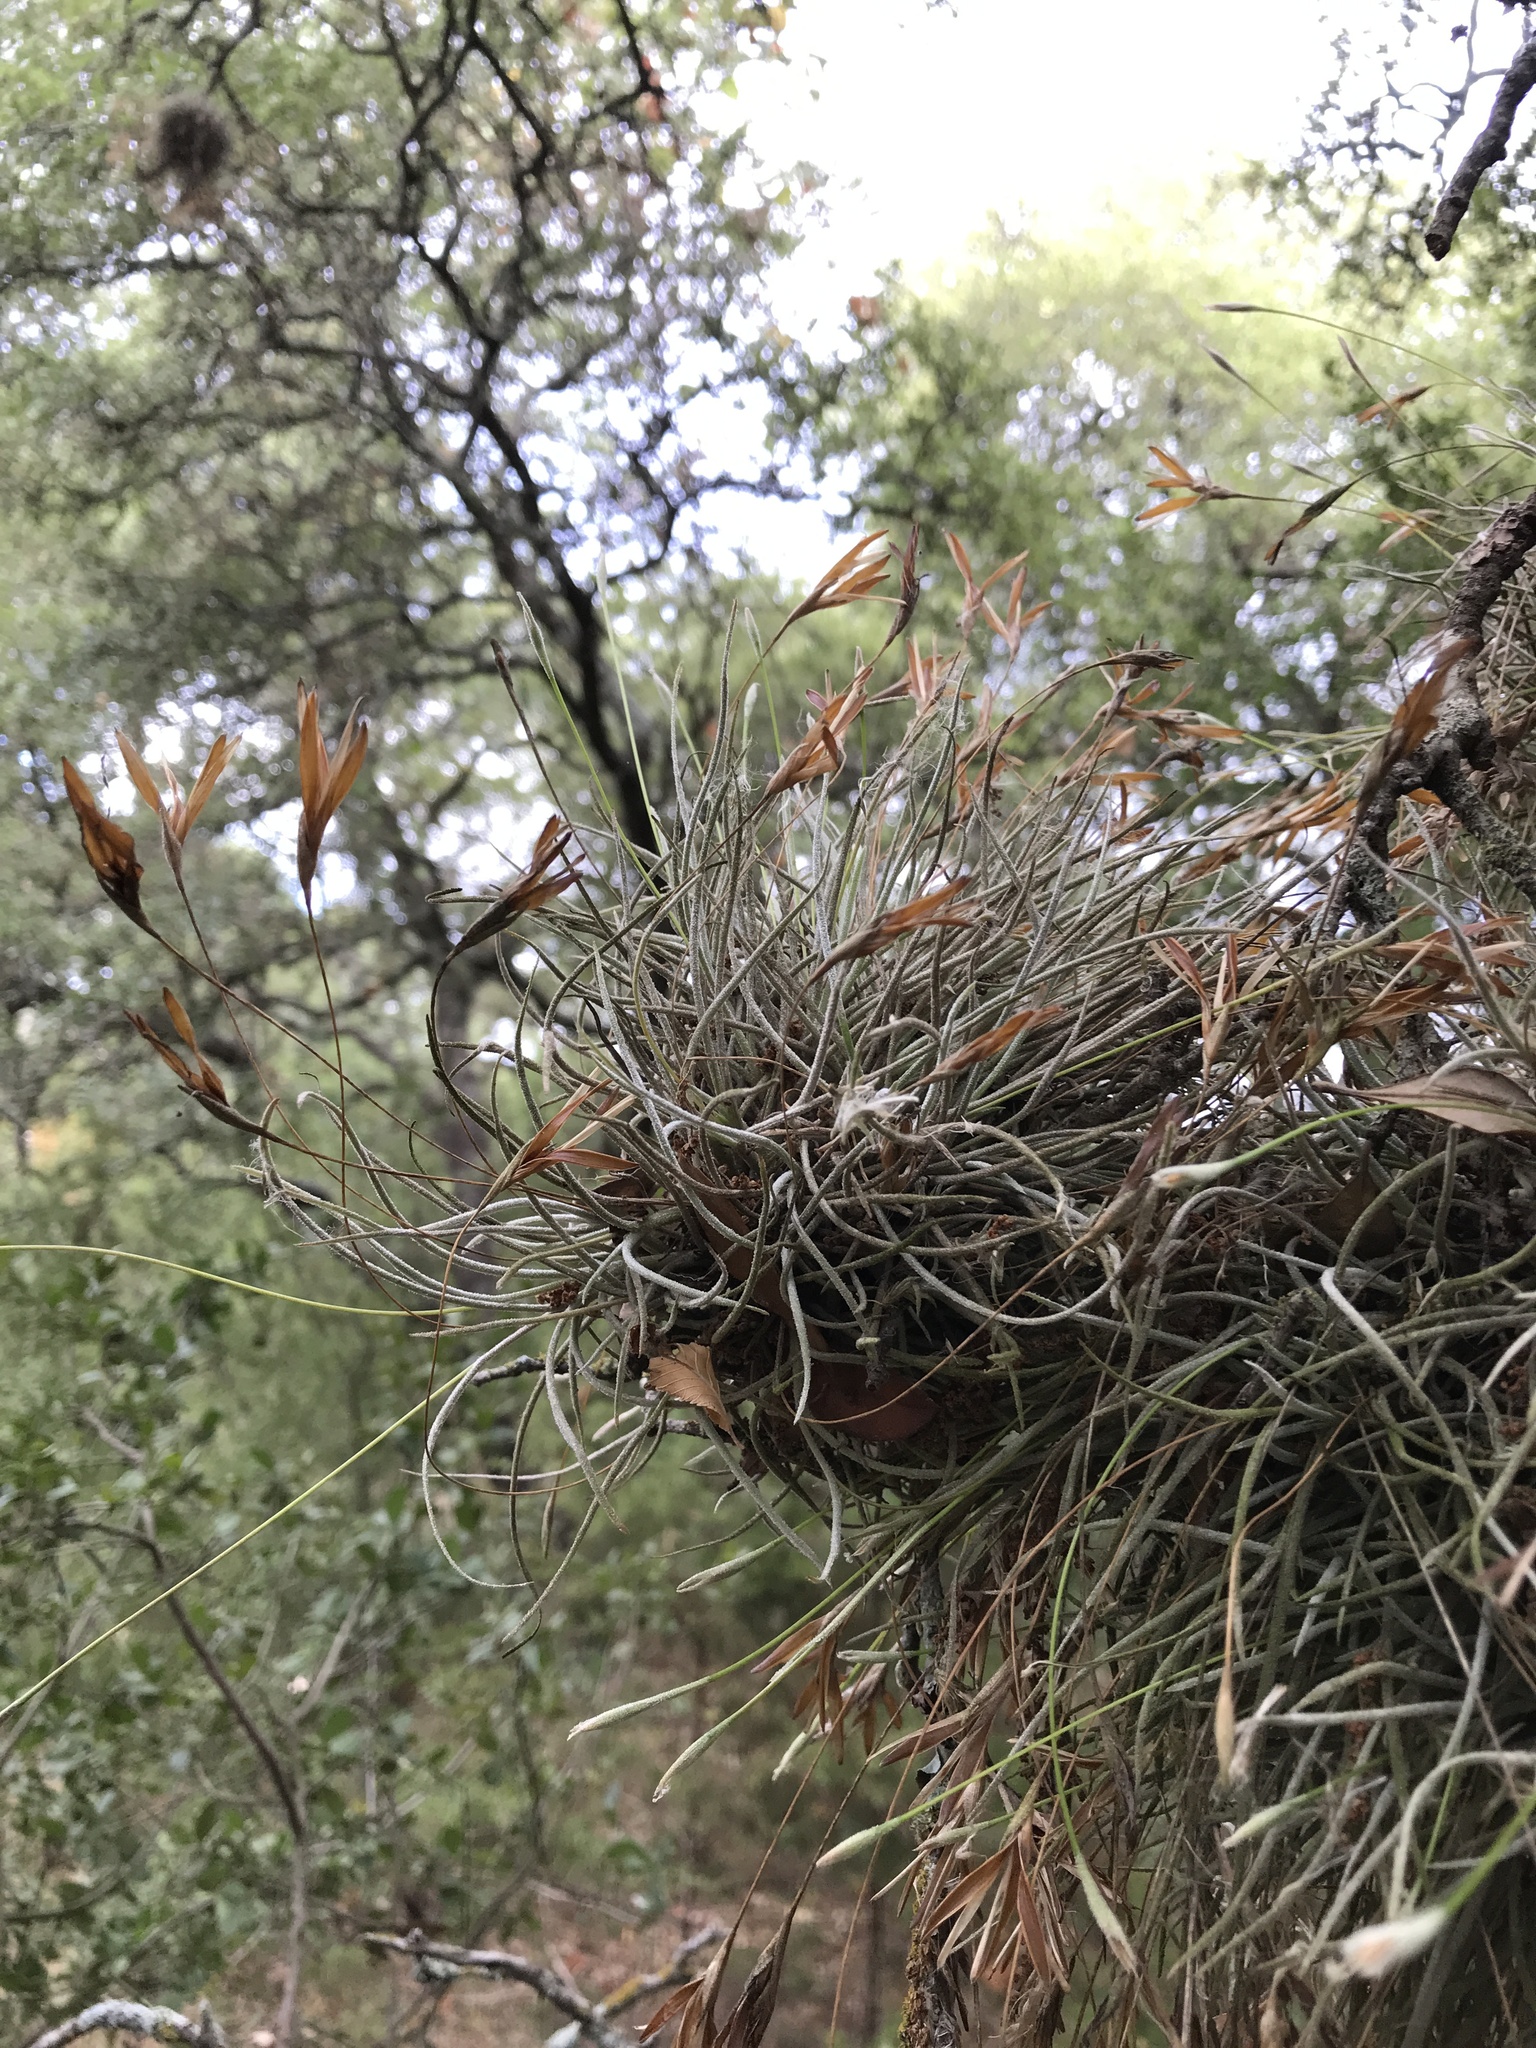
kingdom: Plantae
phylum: Tracheophyta
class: Liliopsida
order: Poales
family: Bromeliaceae
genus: Tillandsia
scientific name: Tillandsia recurvata
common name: Small ballmoss
